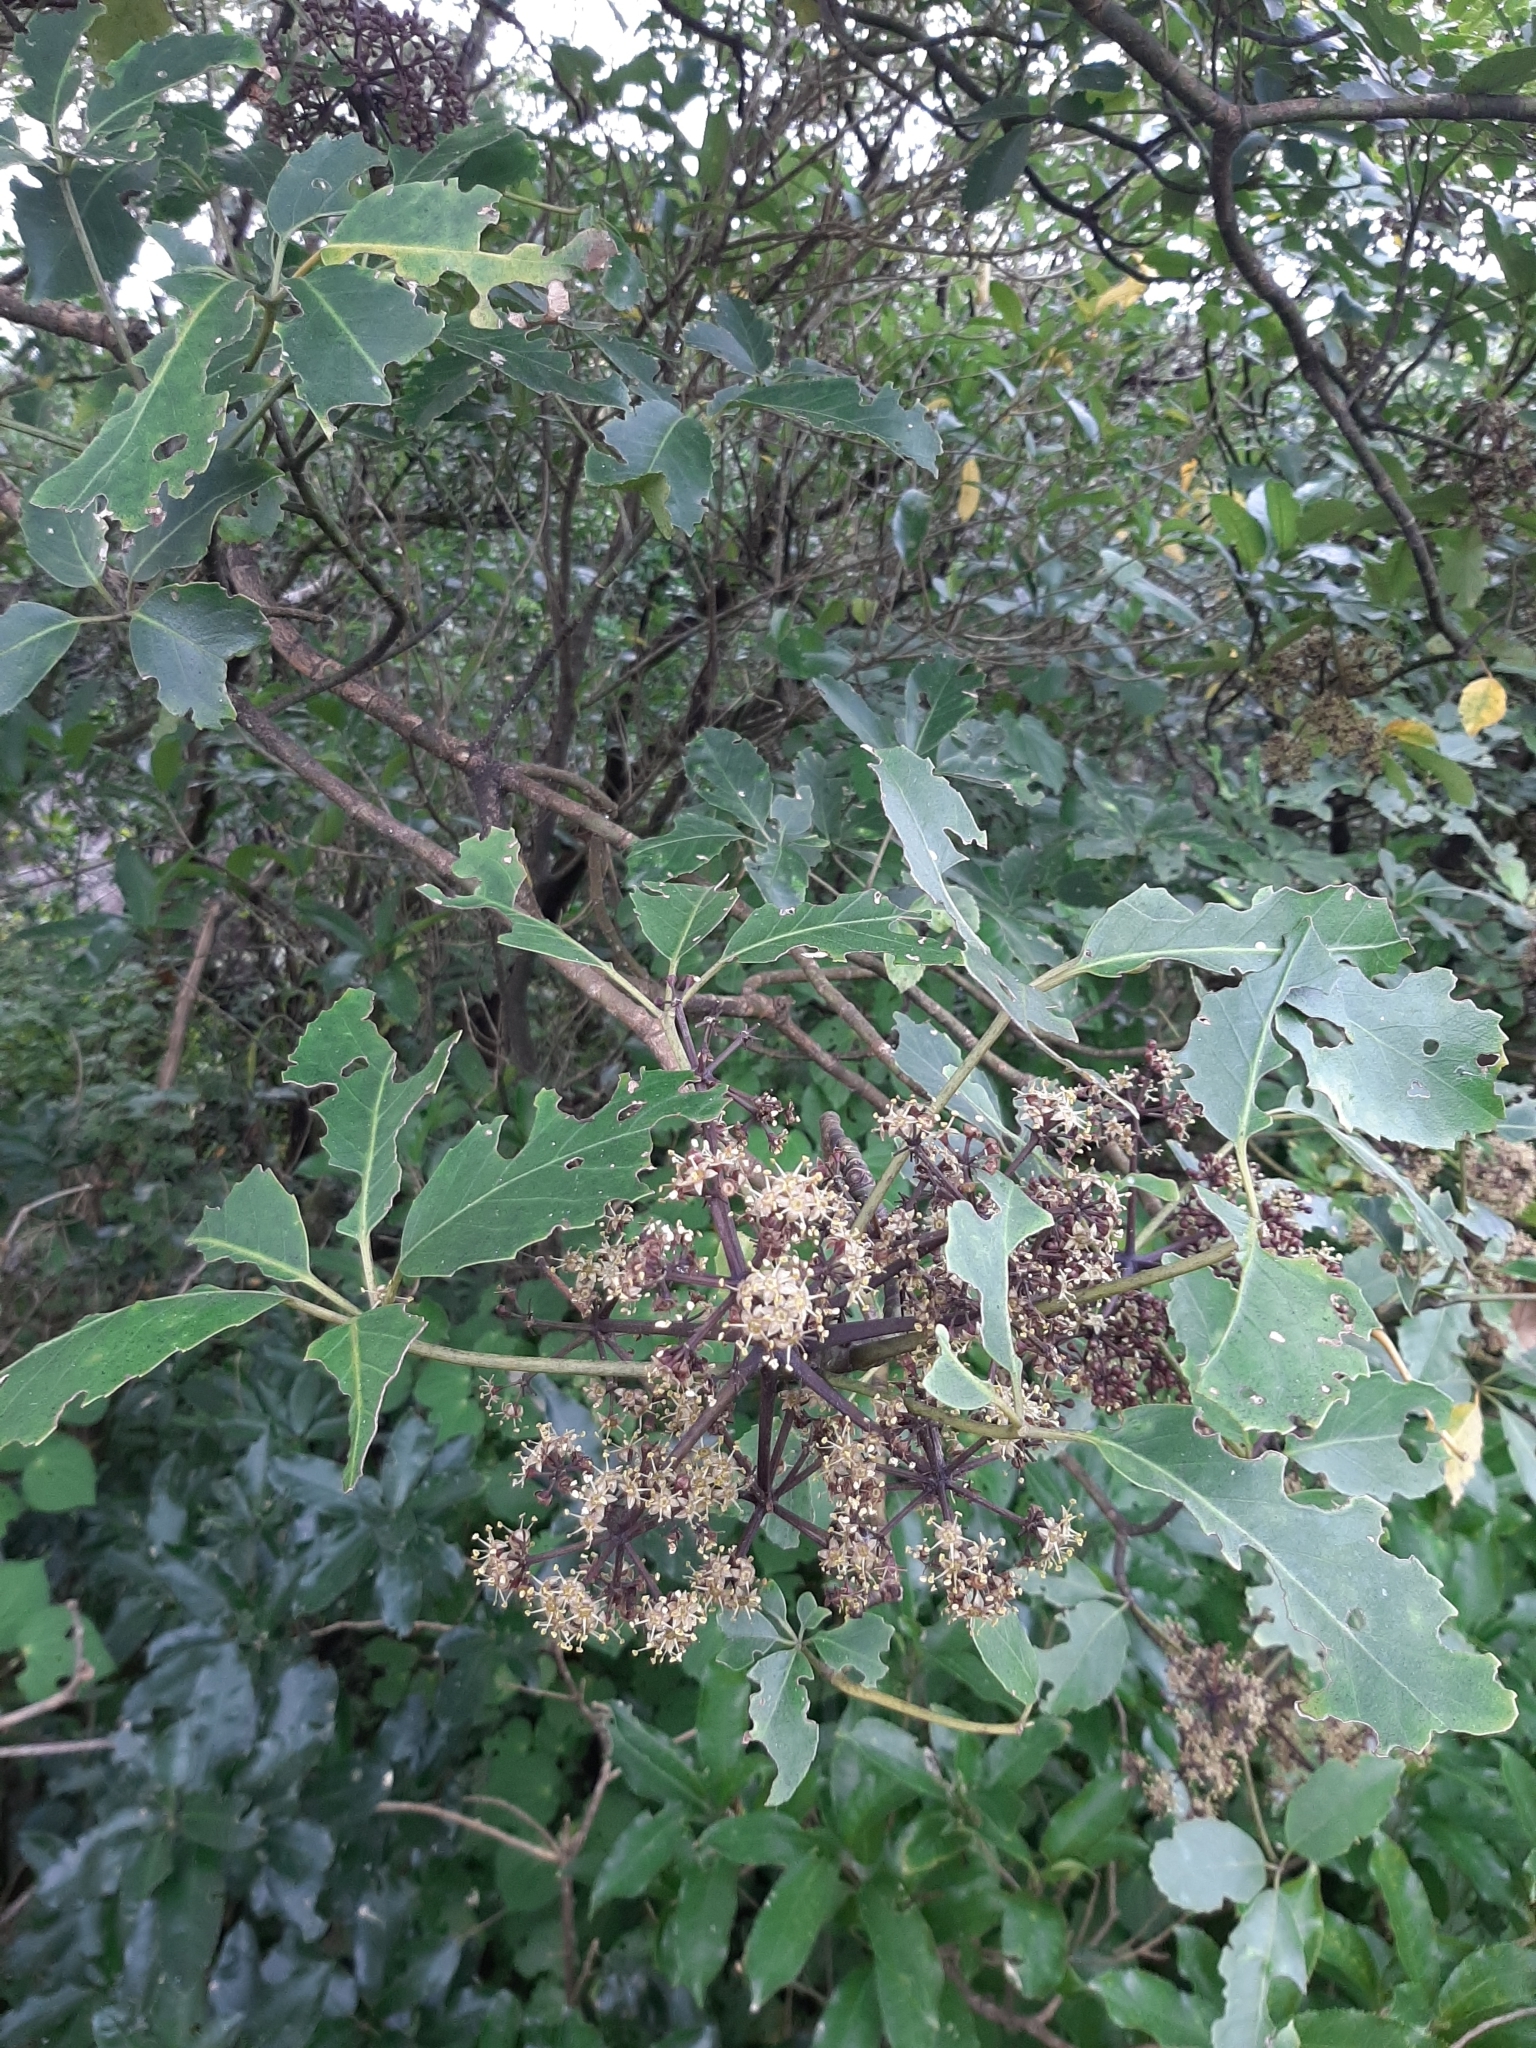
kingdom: Plantae
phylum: Tracheophyta
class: Magnoliopsida
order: Apiales
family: Araliaceae
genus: Neopanax
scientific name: Neopanax arboreus
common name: Five-fingers
